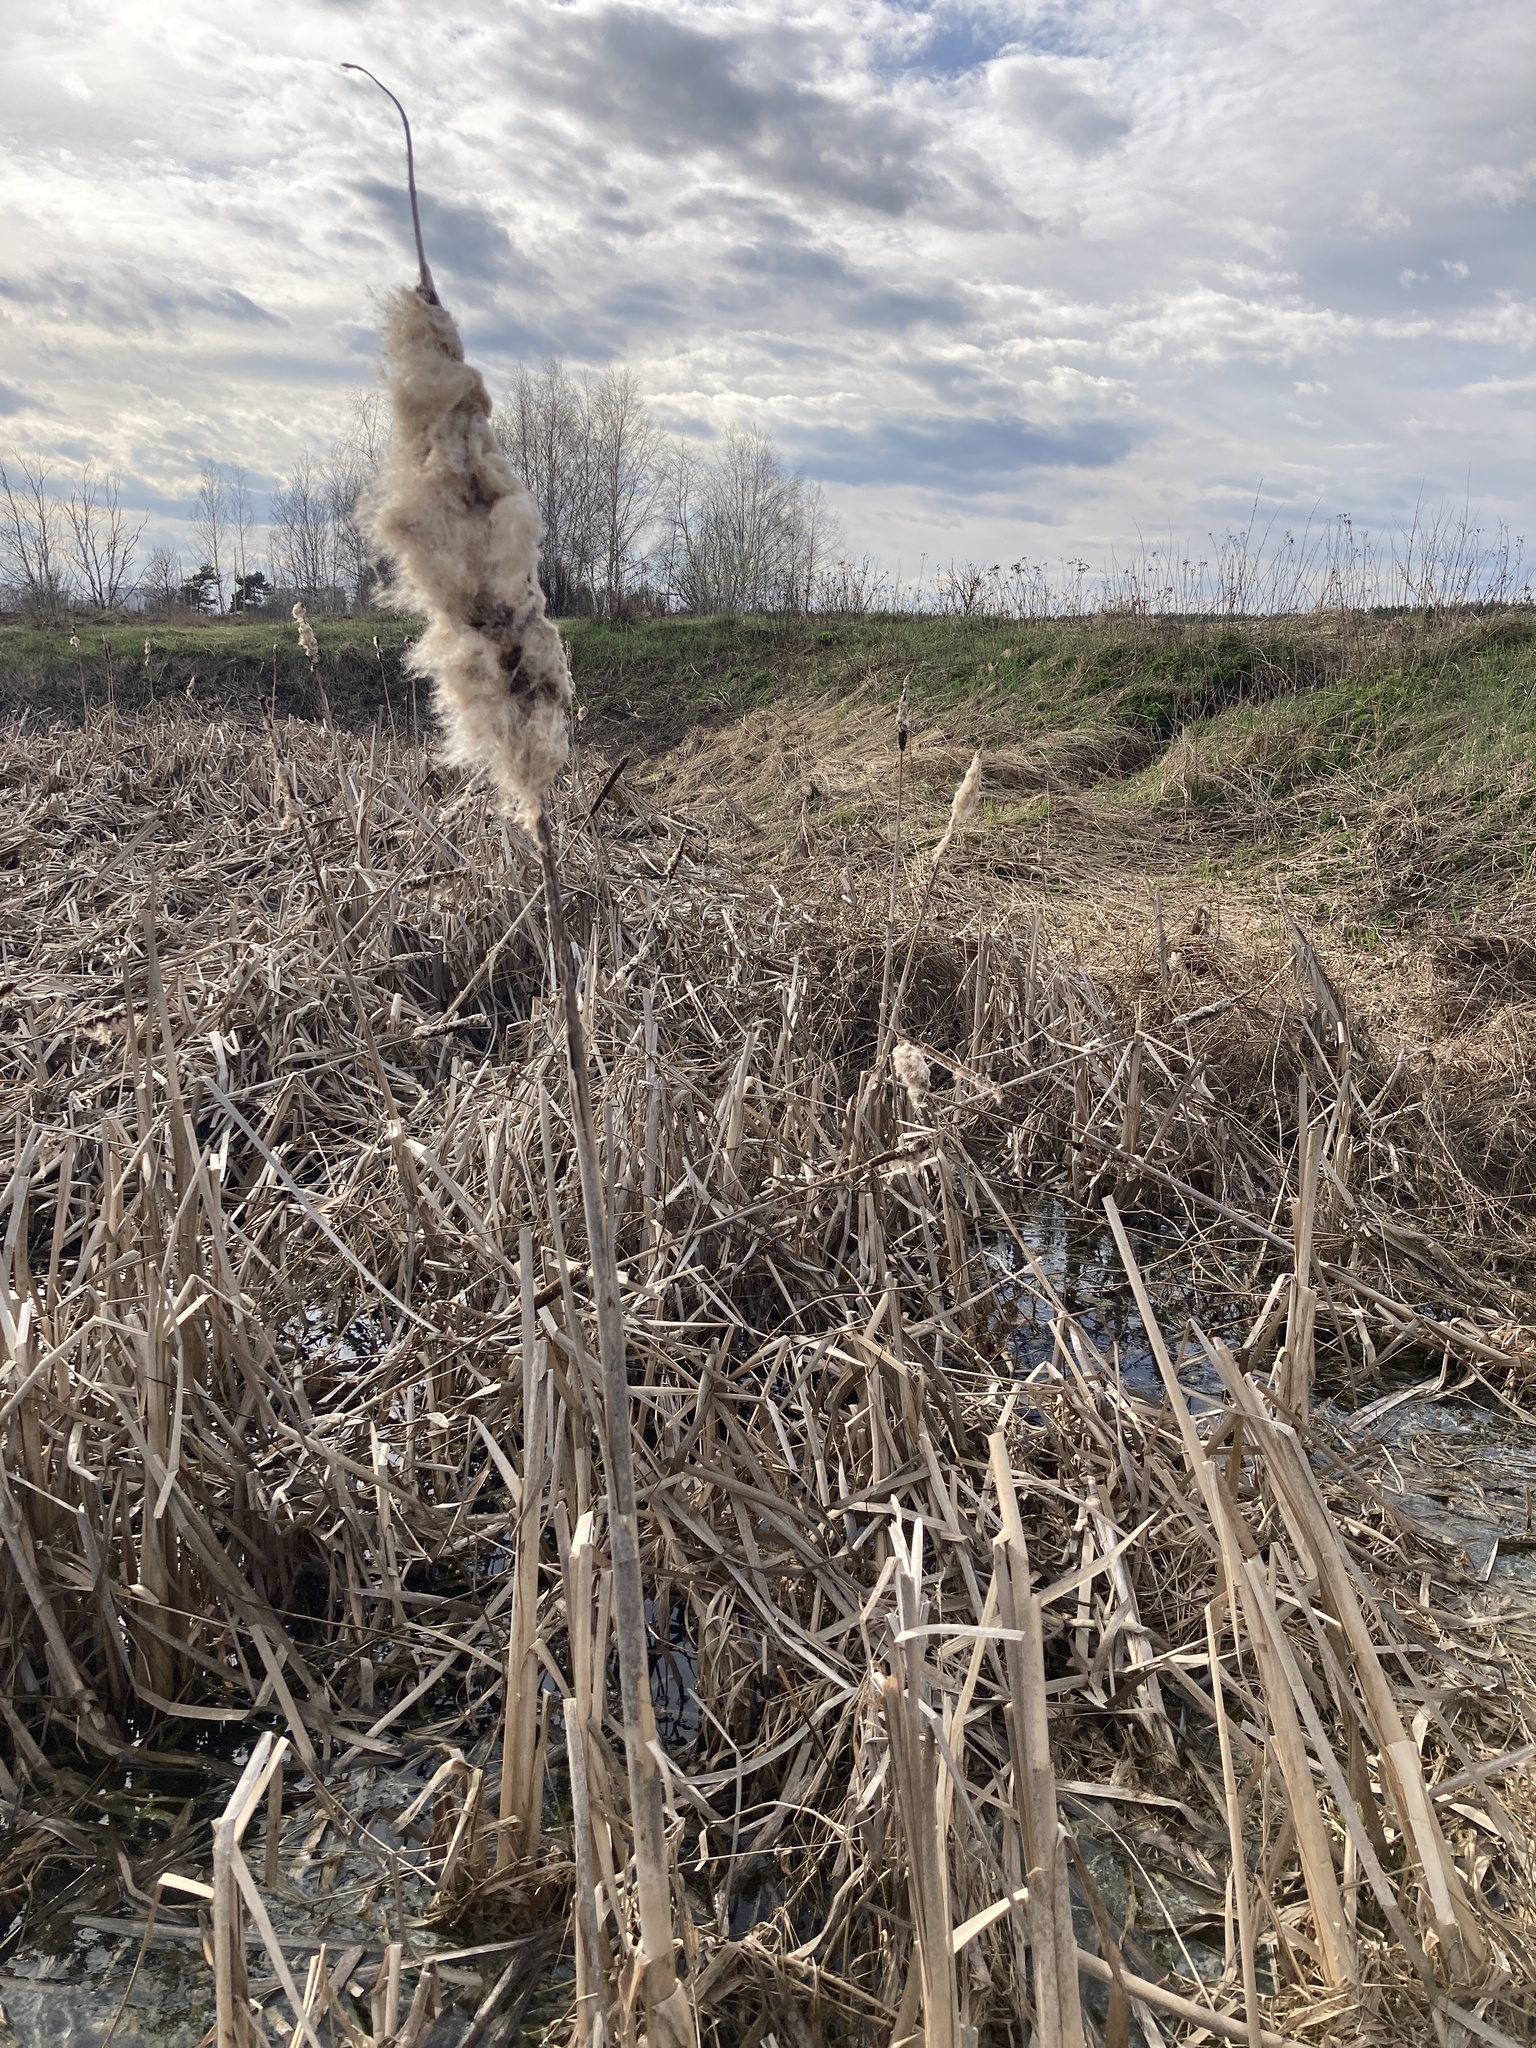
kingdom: Plantae
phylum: Tracheophyta
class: Liliopsida
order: Poales
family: Typhaceae
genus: Typha
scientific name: Typha latifolia
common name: Broadleaf cattail
